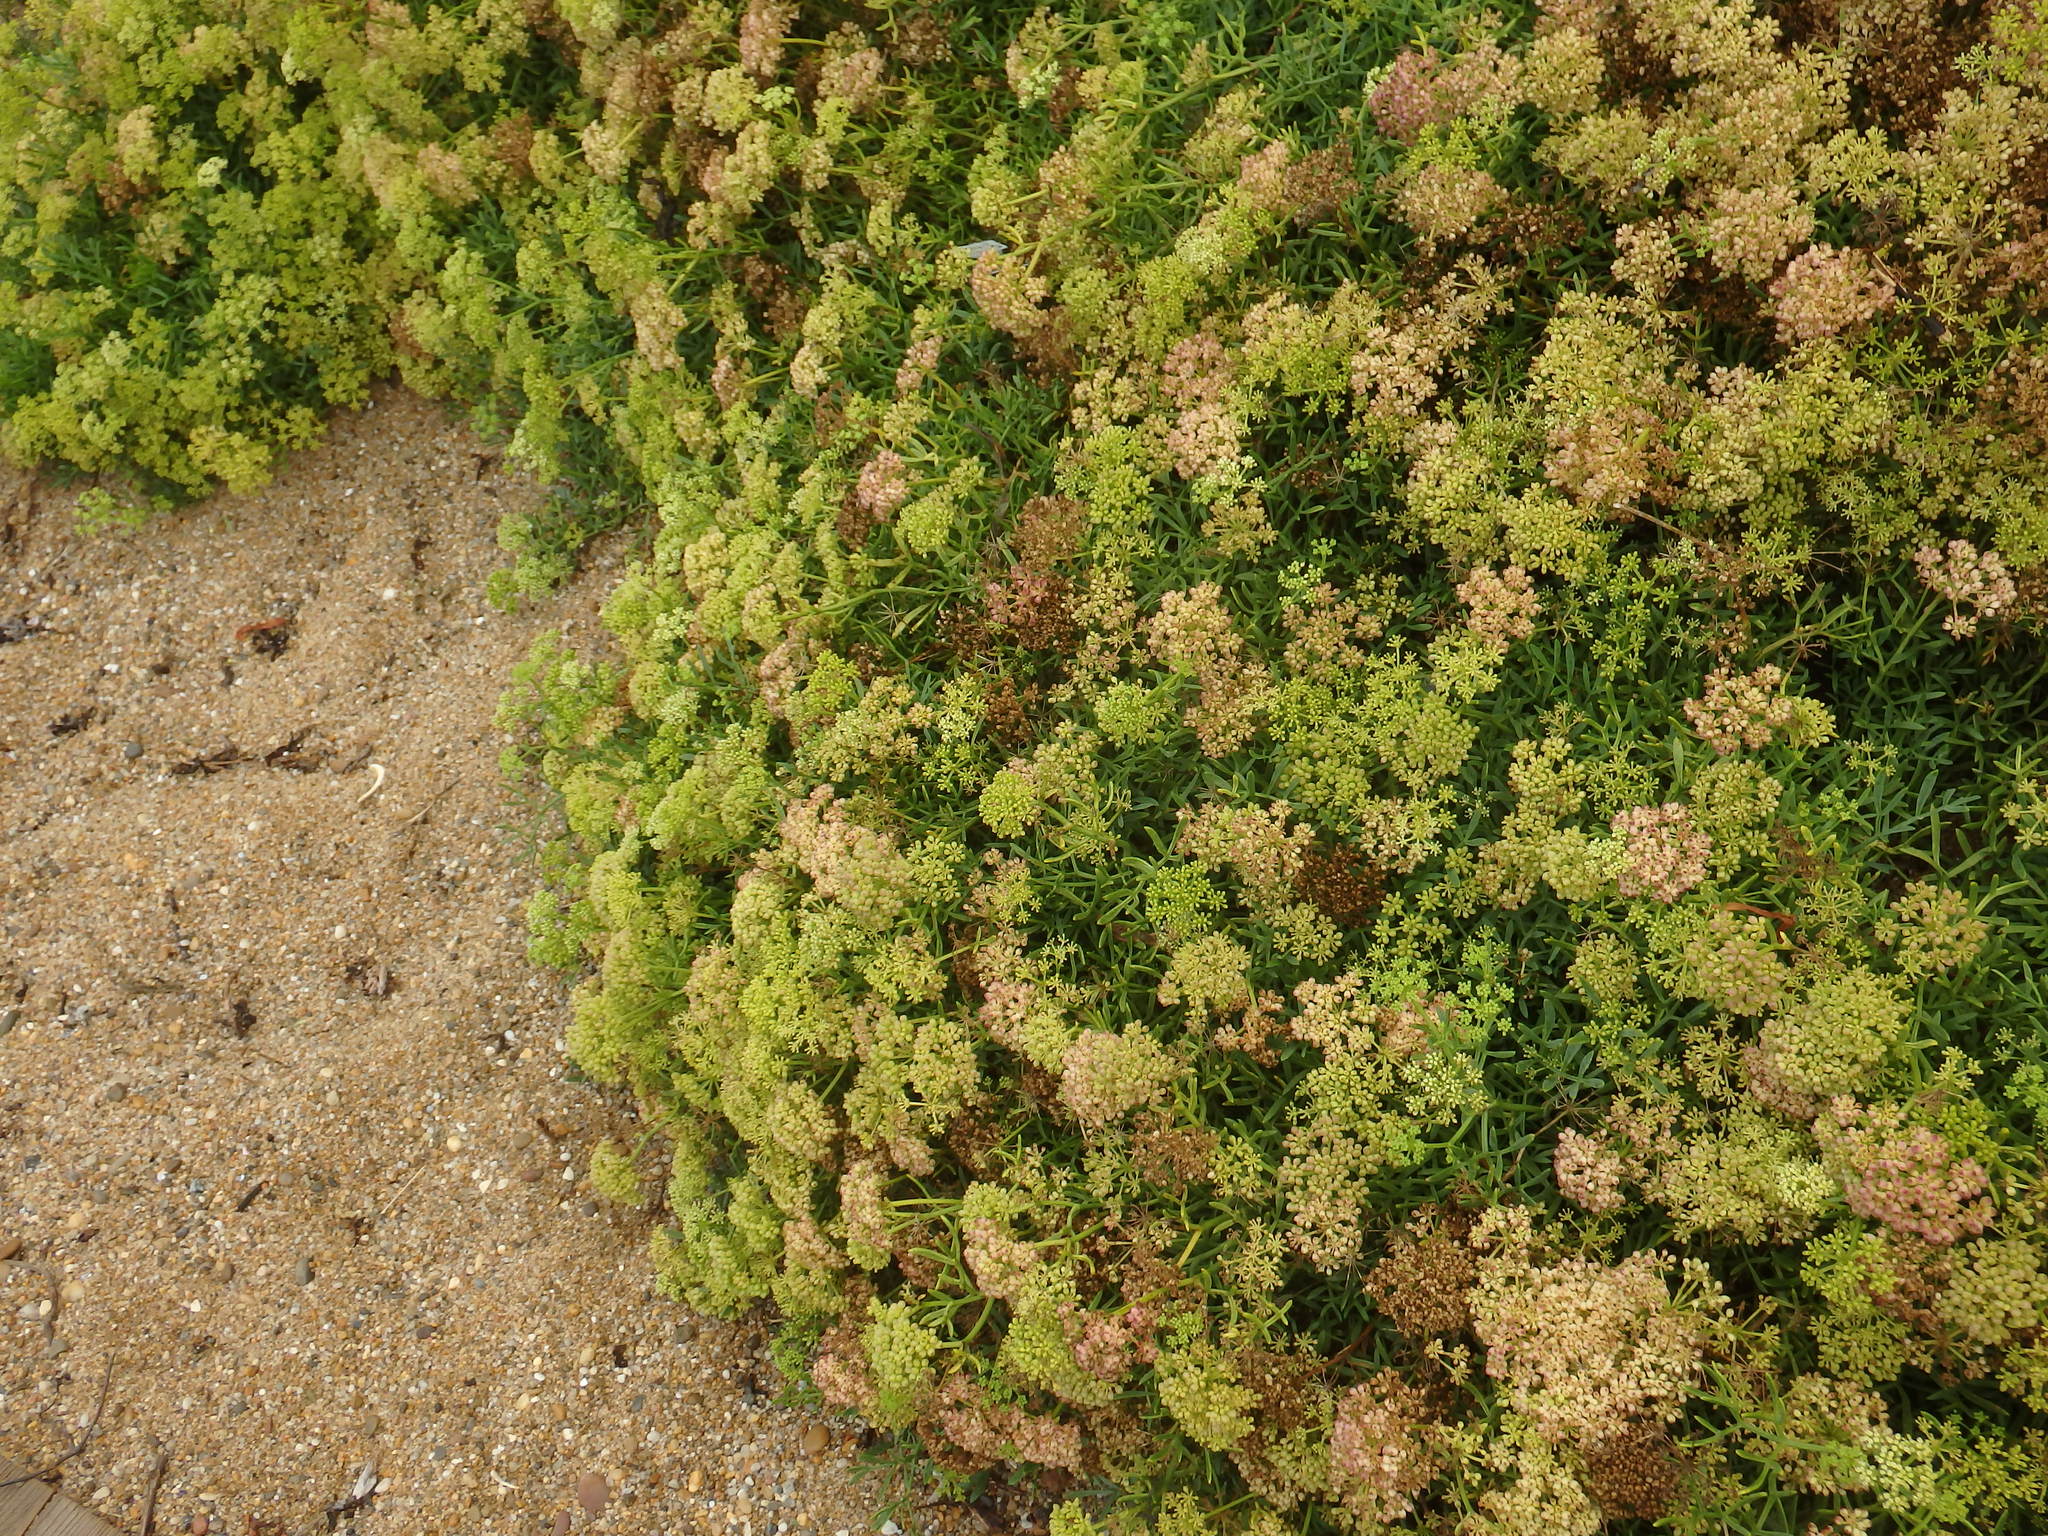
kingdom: Plantae
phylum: Tracheophyta
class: Magnoliopsida
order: Apiales
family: Apiaceae
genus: Crithmum
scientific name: Crithmum maritimum
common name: Rock samphire
